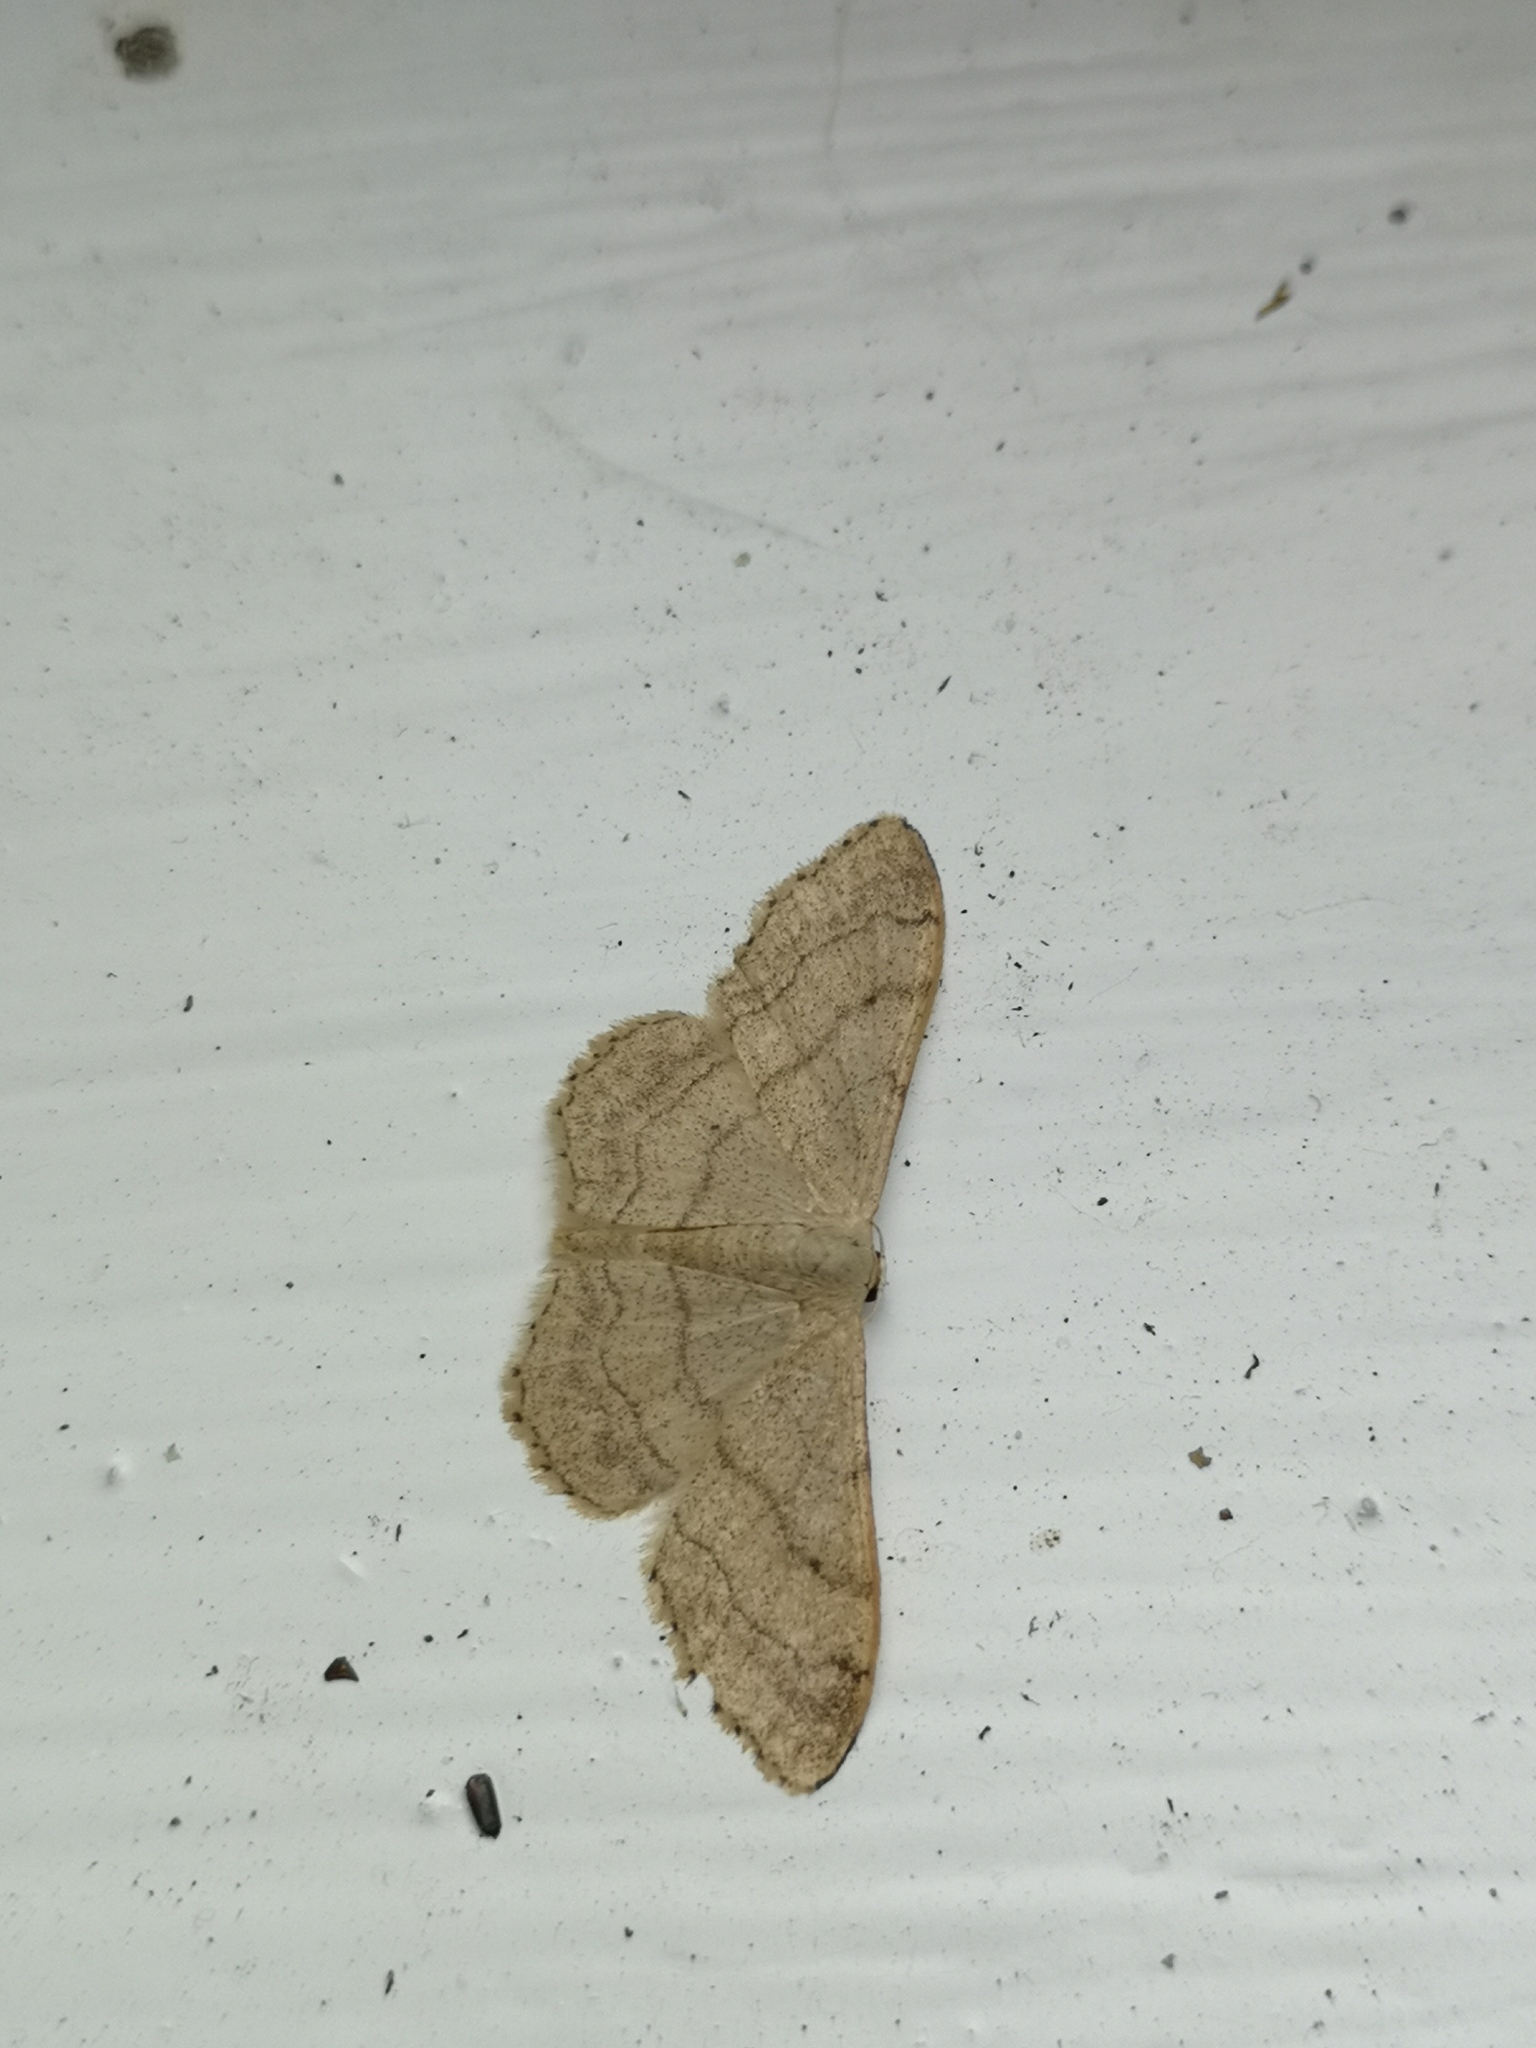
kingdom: Animalia
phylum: Arthropoda
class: Insecta
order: Lepidoptera
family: Geometridae
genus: Idaea
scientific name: Idaea aversata
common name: Riband wave
